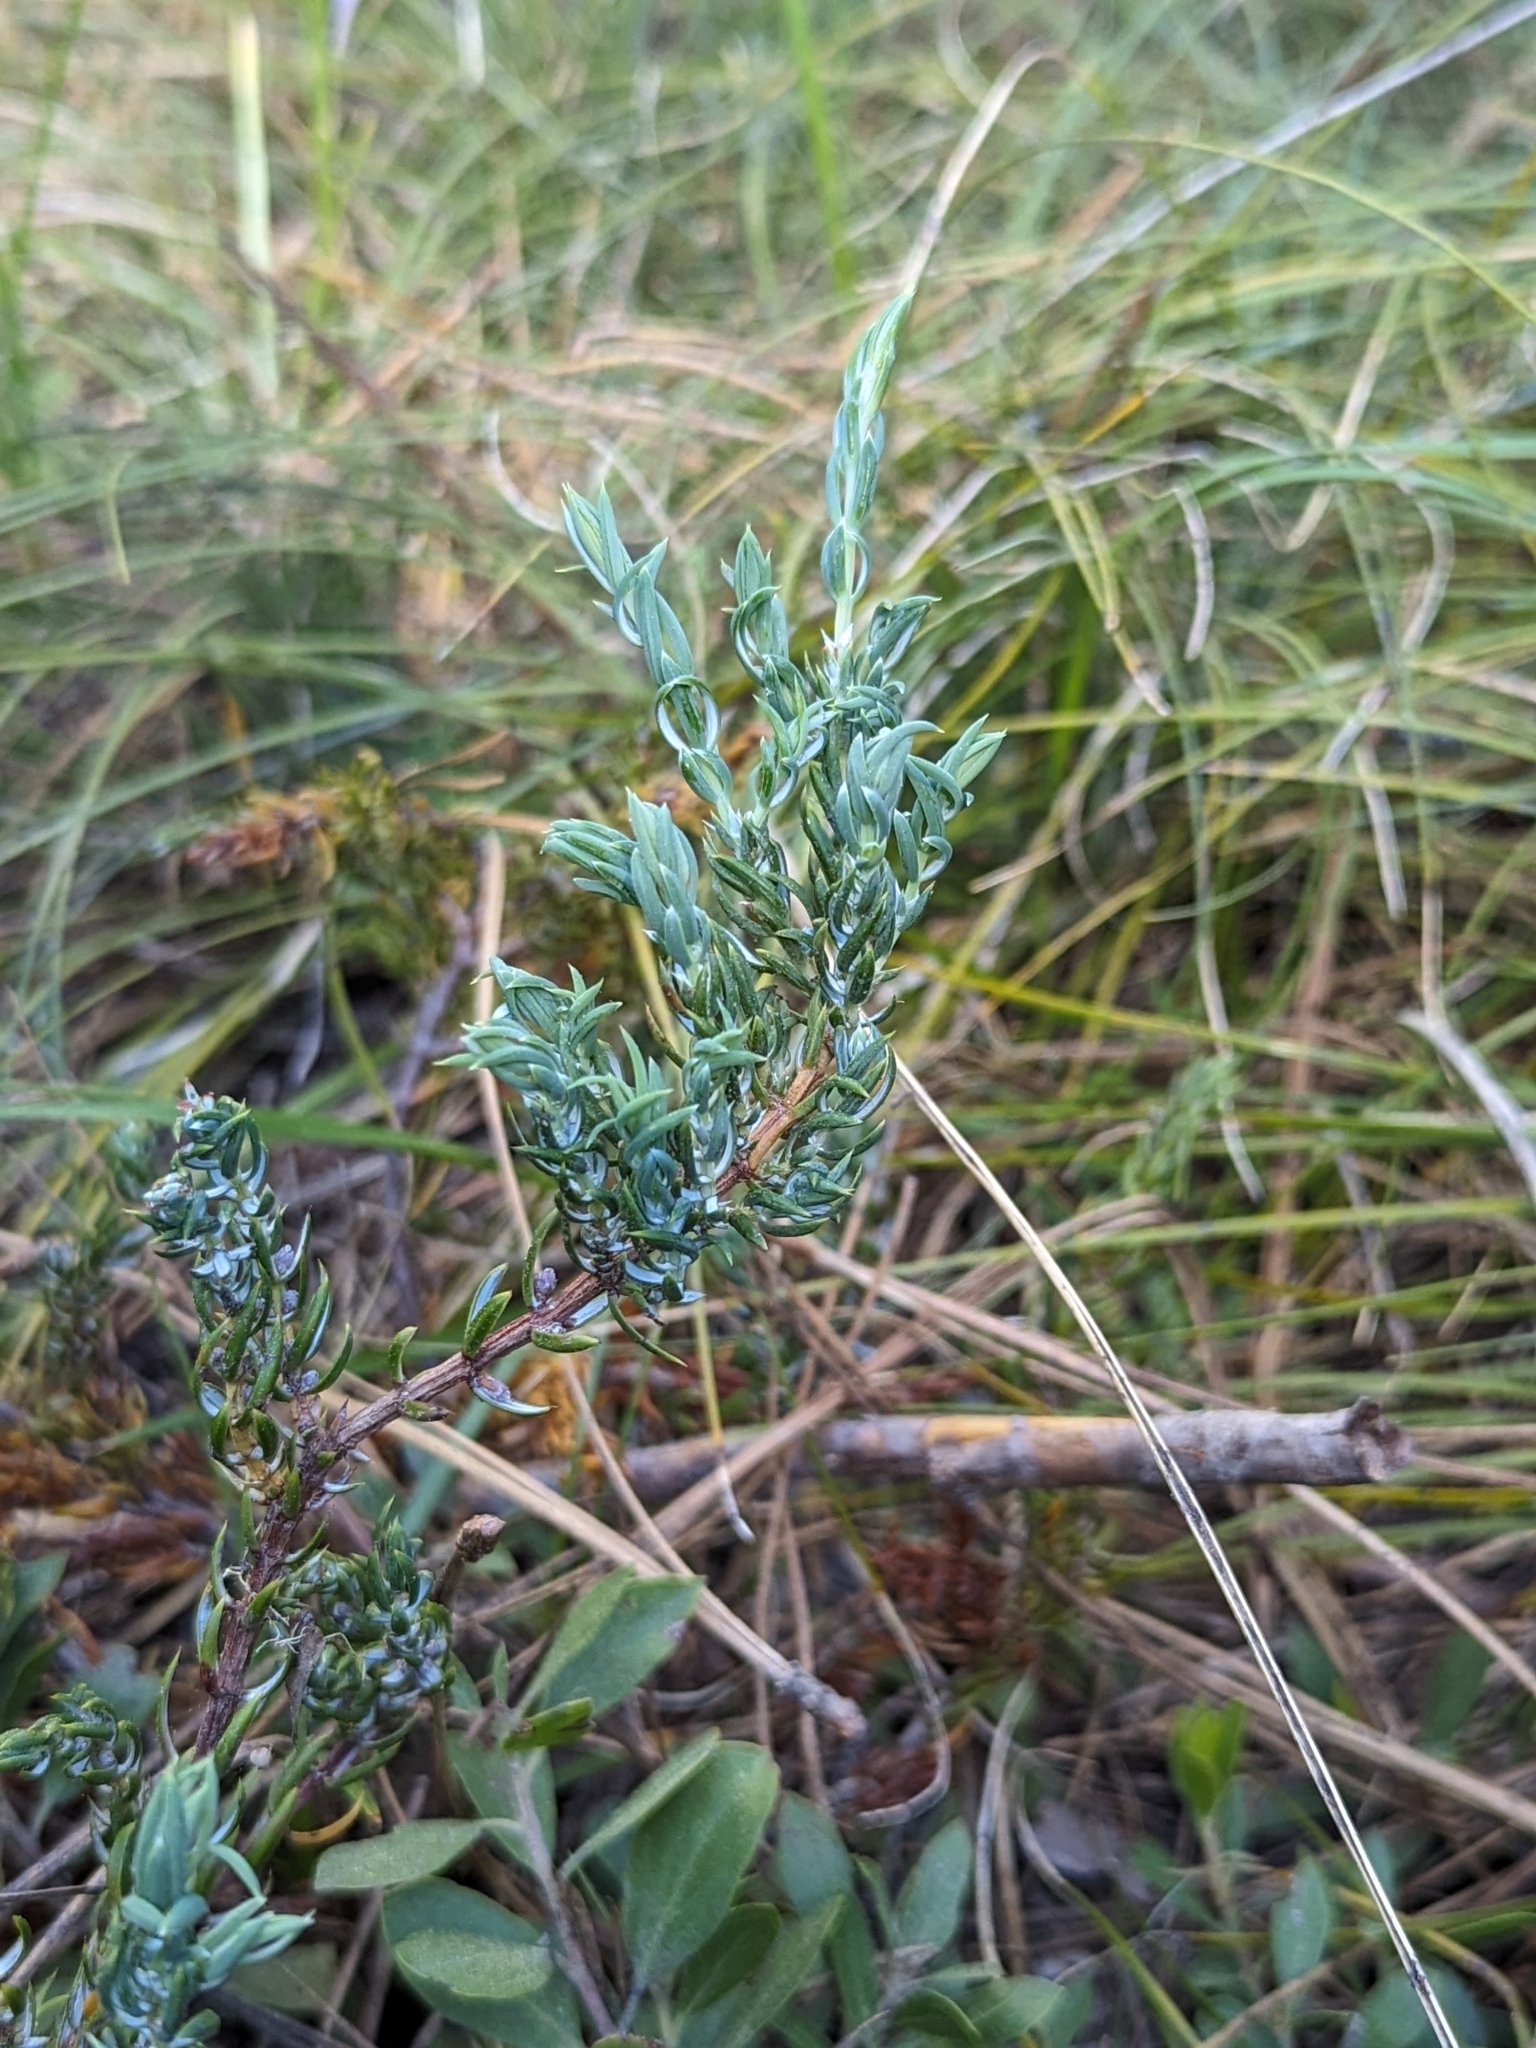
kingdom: Plantae
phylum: Tracheophyta
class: Pinopsida
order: Pinales
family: Cupressaceae
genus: Juniperus
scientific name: Juniperus communis
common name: Common juniper
